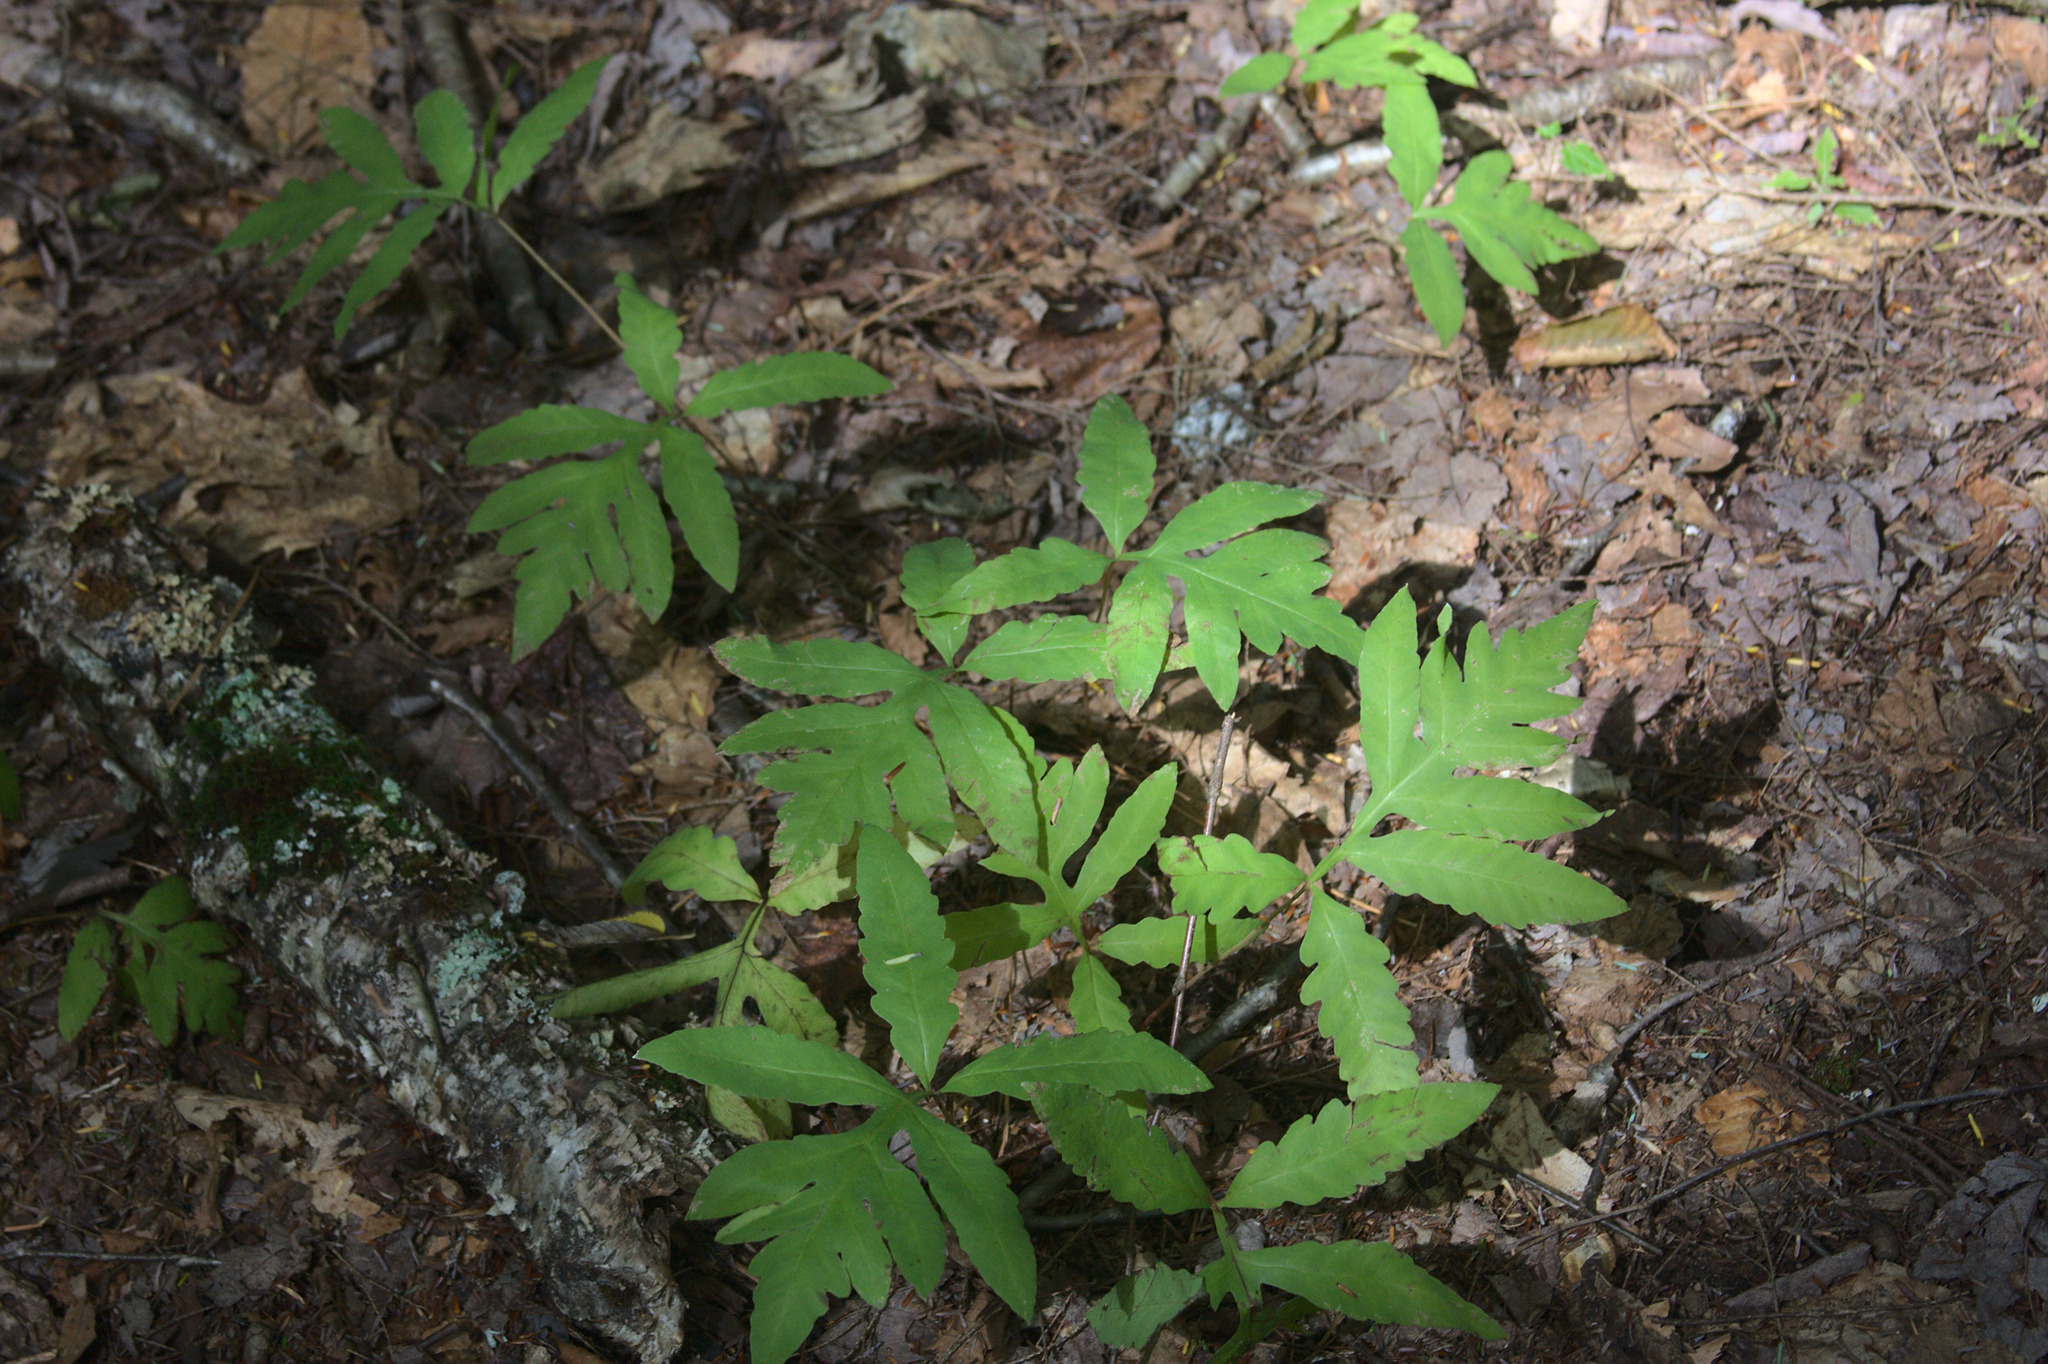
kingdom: Plantae
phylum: Tracheophyta
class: Polypodiopsida
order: Polypodiales
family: Onocleaceae
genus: Onoclea
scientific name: Onoclea sensibilis
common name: Sensitive fern
